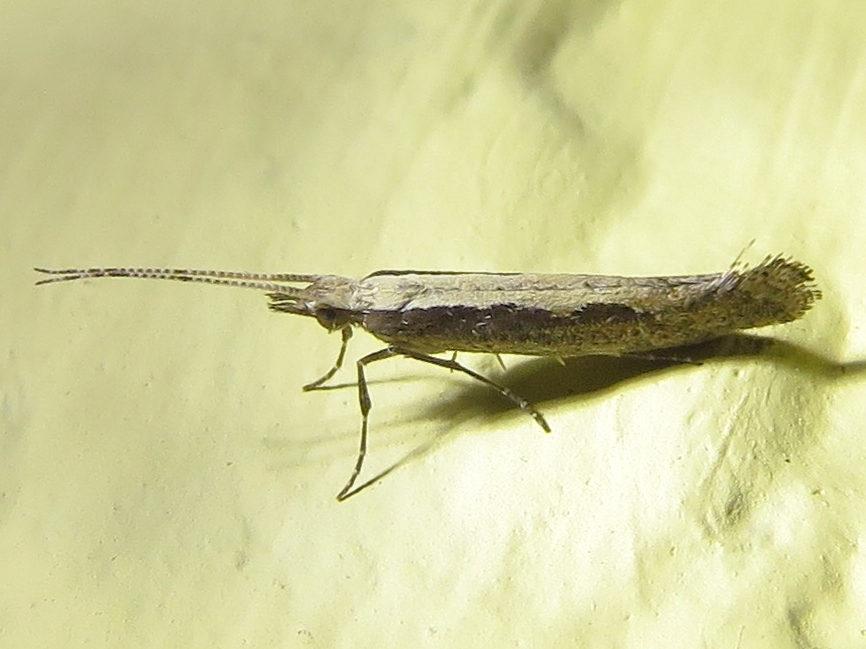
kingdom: Animalia
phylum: Arthropoda
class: Insecta
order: Lepidoptera
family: Plutellidae
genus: Plutella
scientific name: Plutella xylostella
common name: Diamond-back moth
